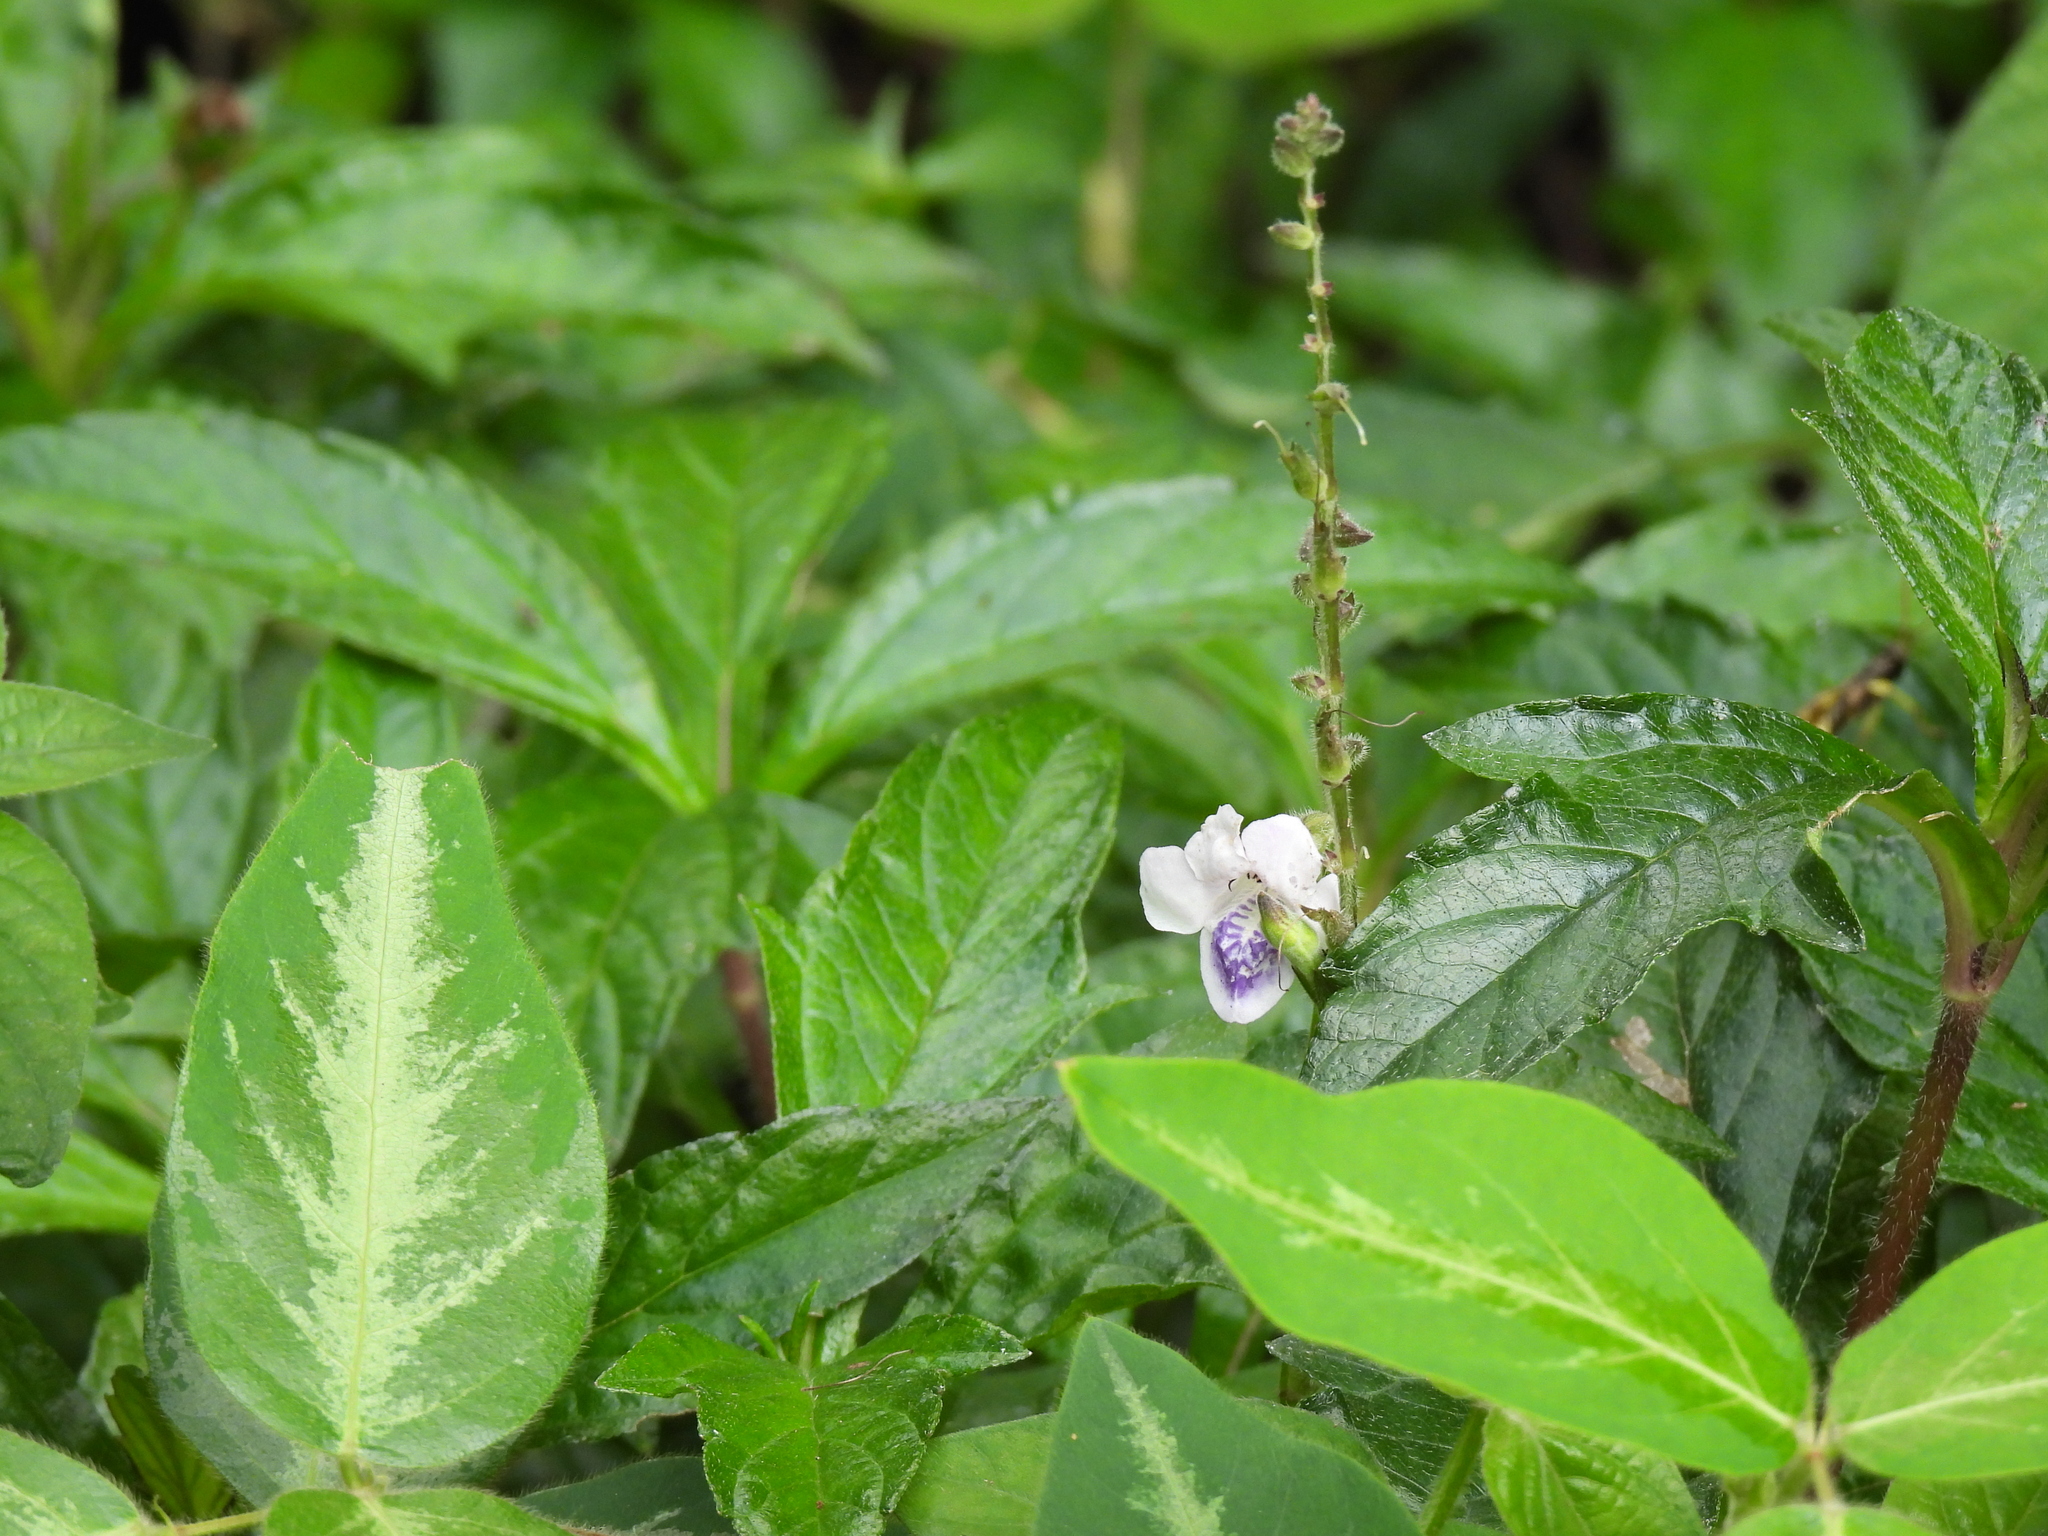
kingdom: Plantae
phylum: Tracheophyta
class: Magnoliopsida
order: Lamiales
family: Acanthaceae
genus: Asystasia
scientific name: Asystasia intrusa
